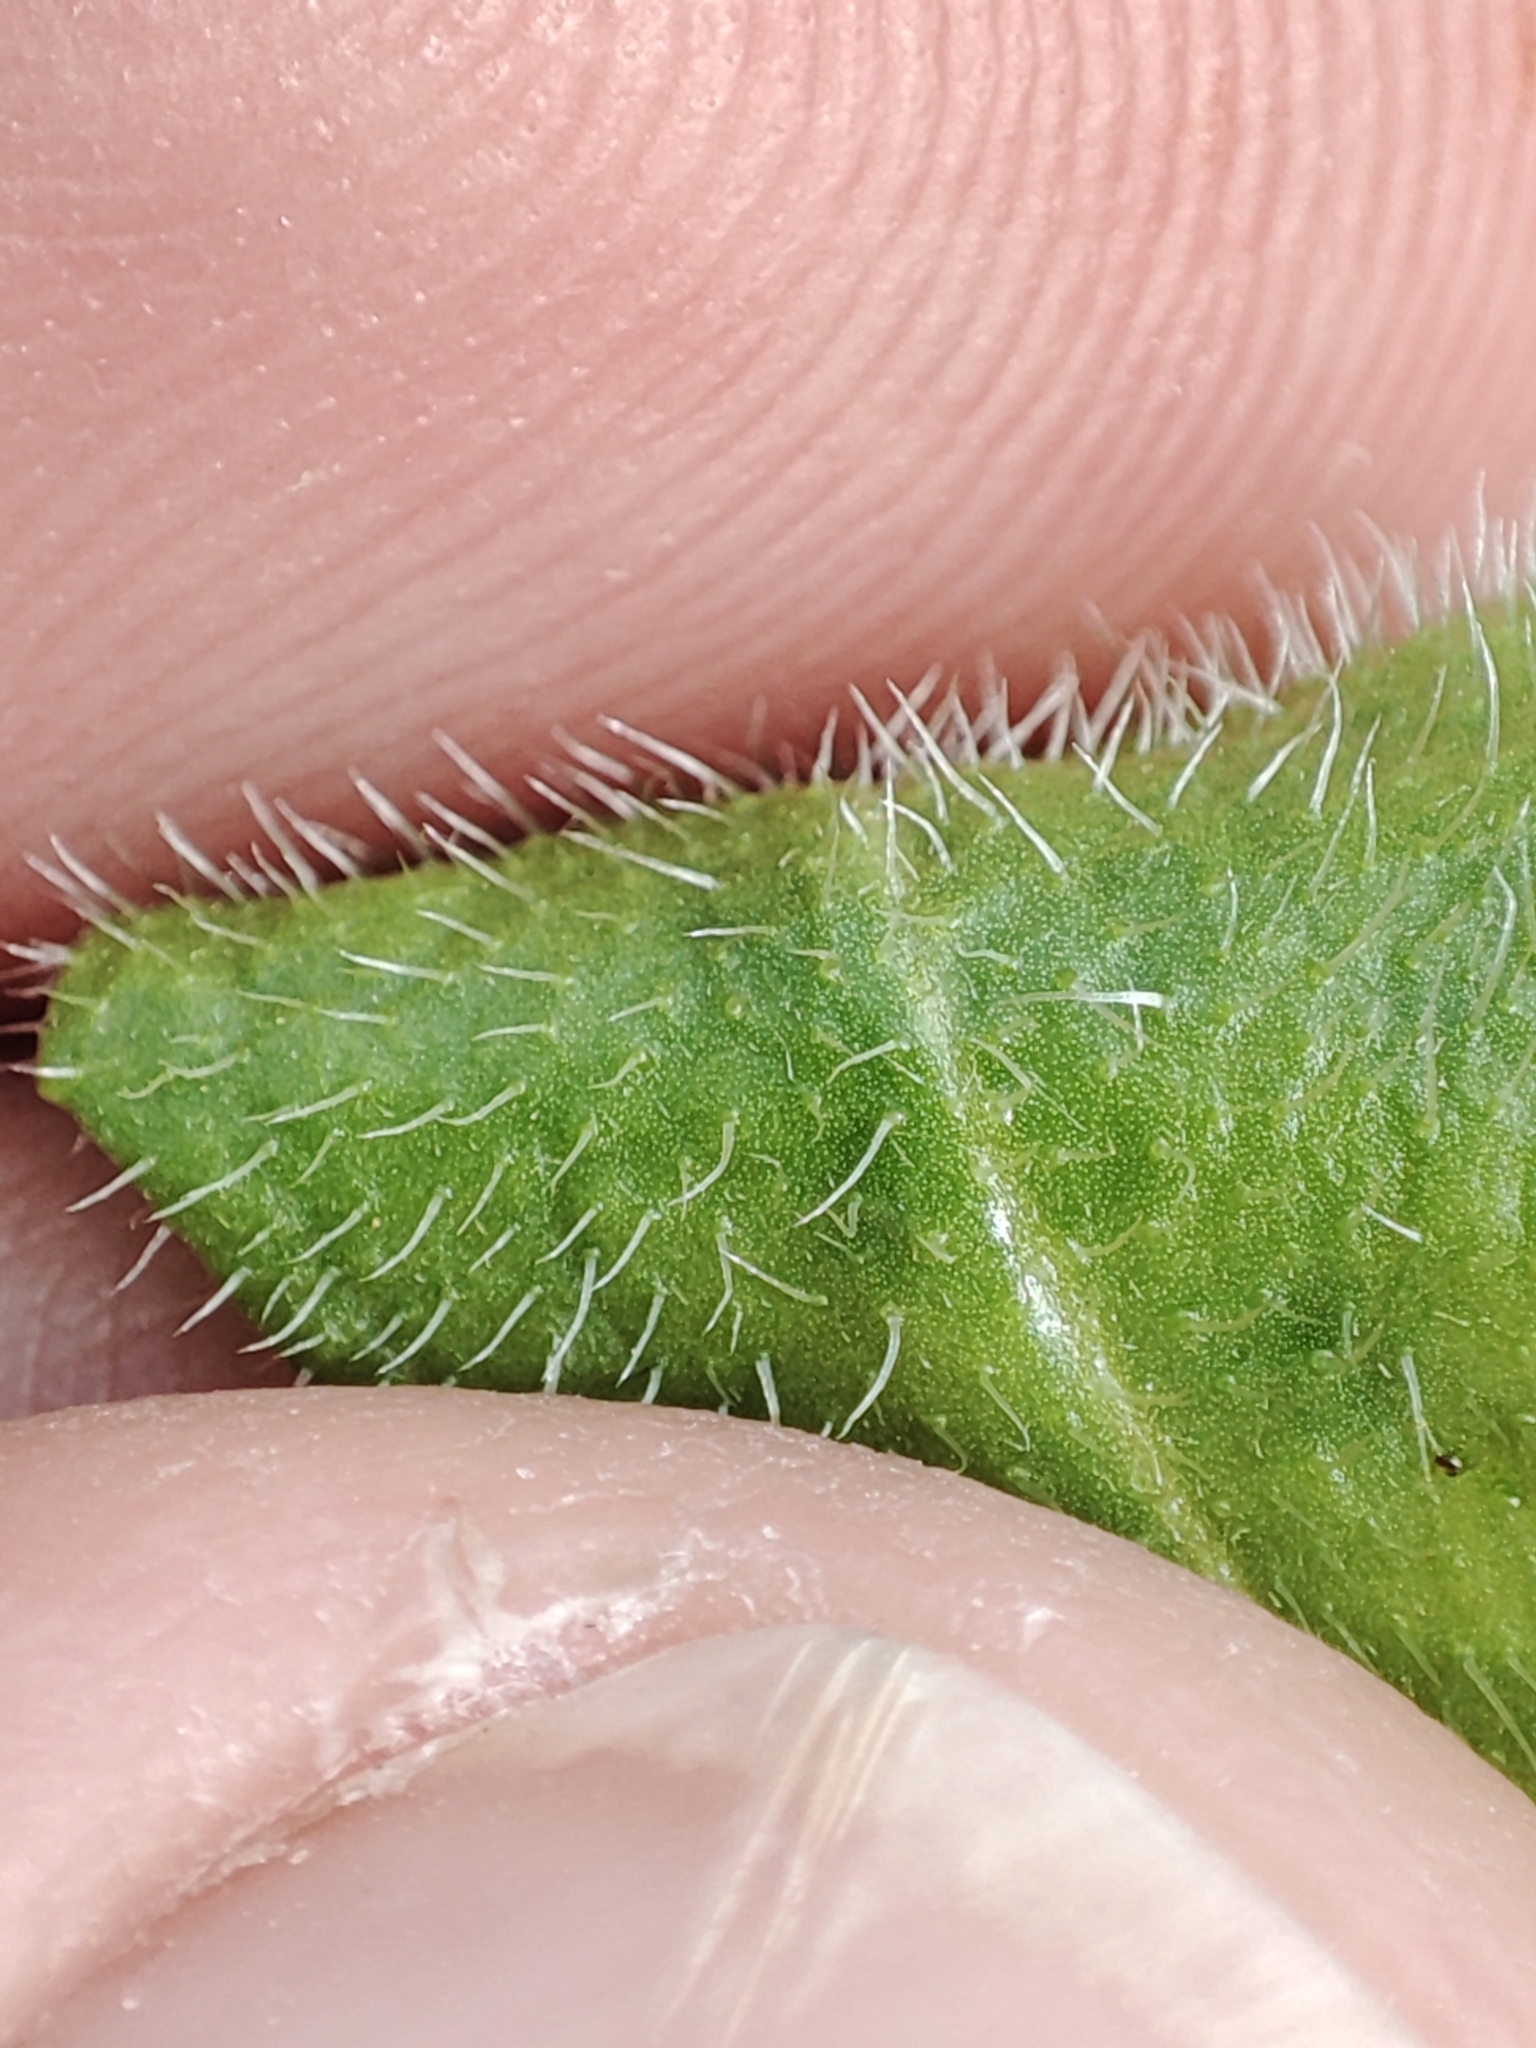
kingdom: Plantae
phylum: Tracheophyta
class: Magnoliopsida
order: Asterales
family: Asteraceae
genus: Hypochaeris
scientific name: Hypochaeris radicata
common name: Flatweed
